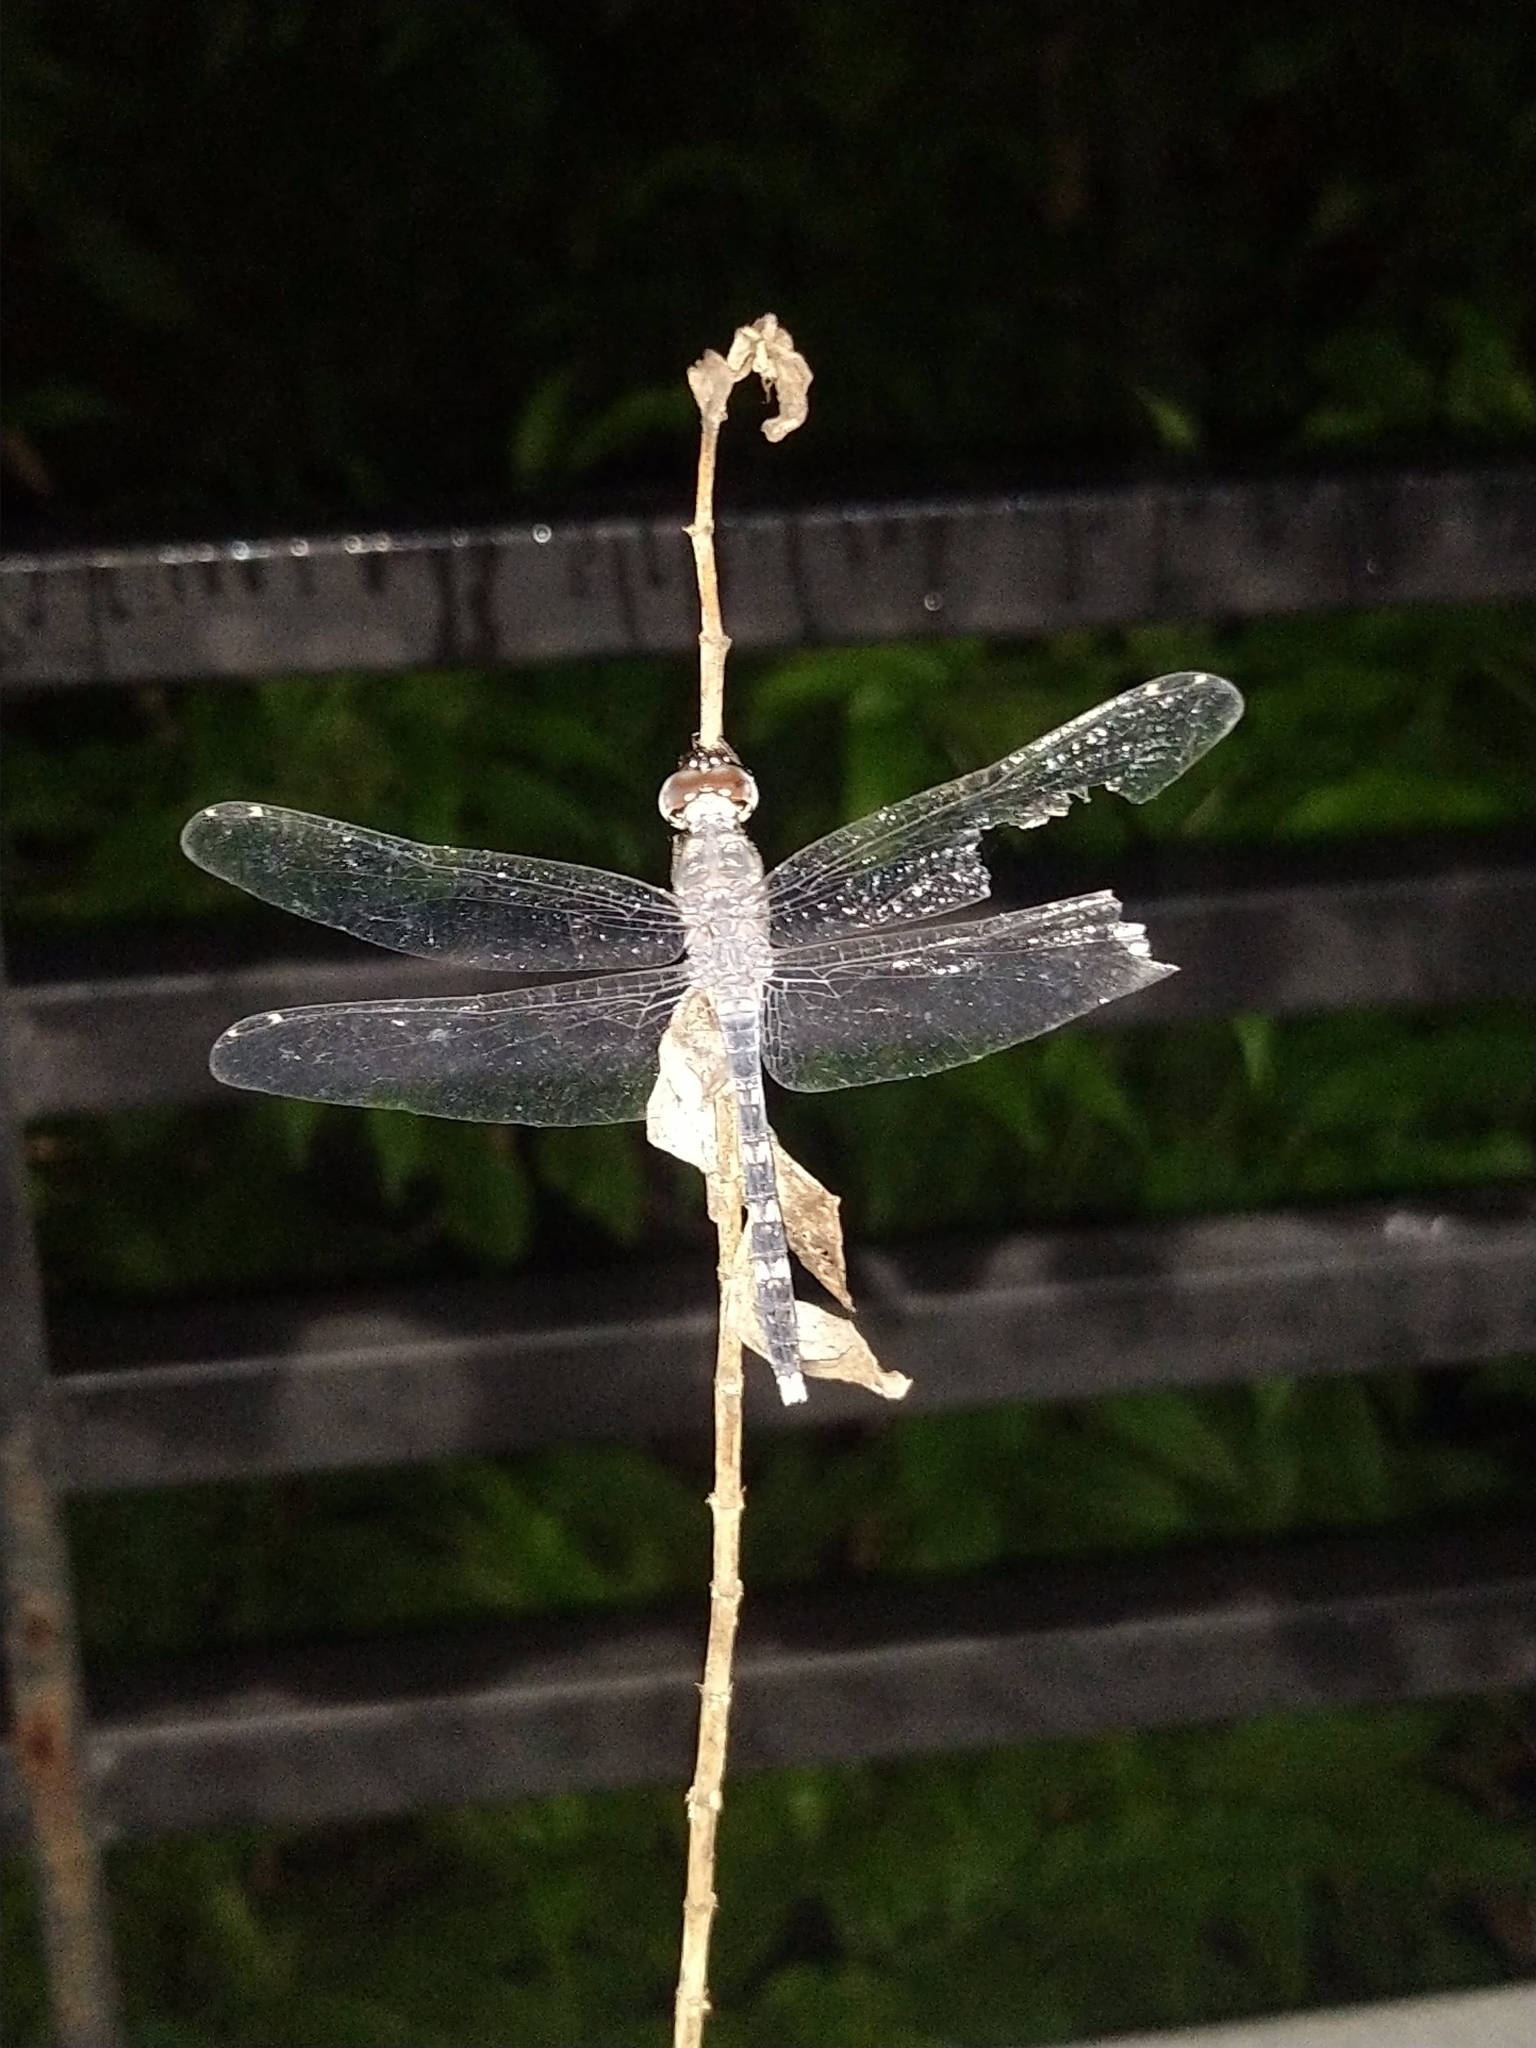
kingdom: Animalia
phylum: Arthropoda
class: Insecta
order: Odonata
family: Libellulidae
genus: Bradinopyga
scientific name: Bradinopyga geminata
